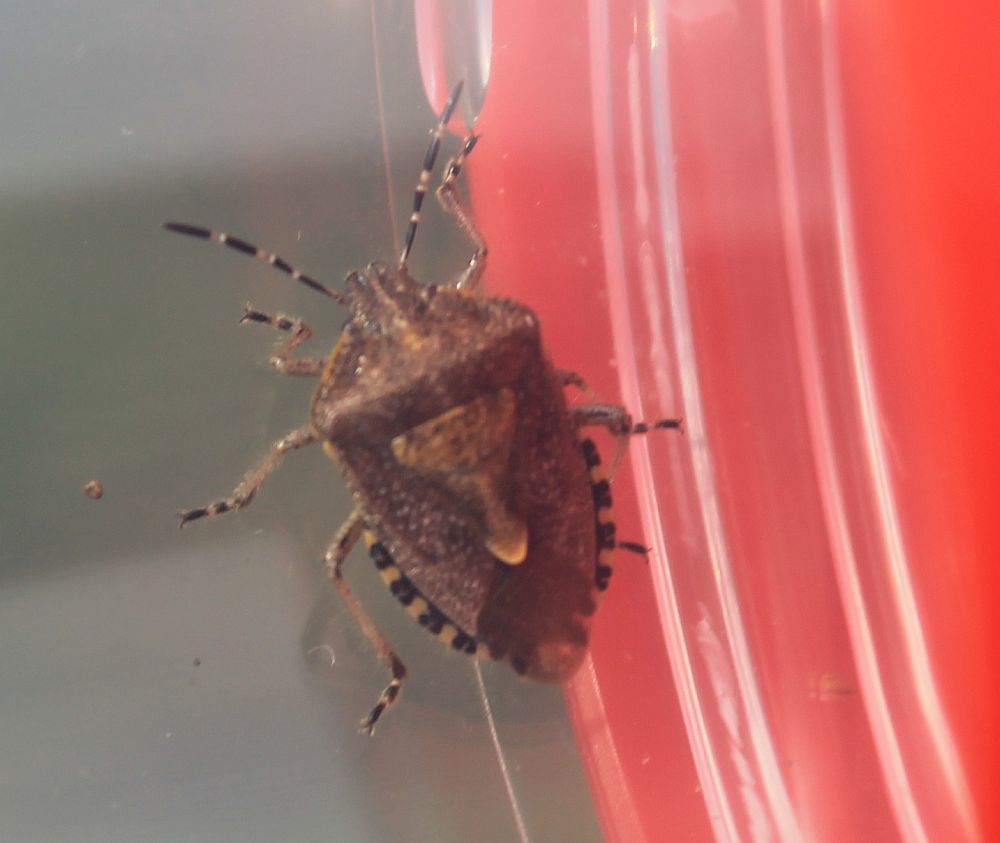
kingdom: Animalia
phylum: Arthropoda
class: Insecta
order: Hemiptera
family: Pentatomidae
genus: Dolycoris
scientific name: Dolycoris baccarum
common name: Sloe bug
